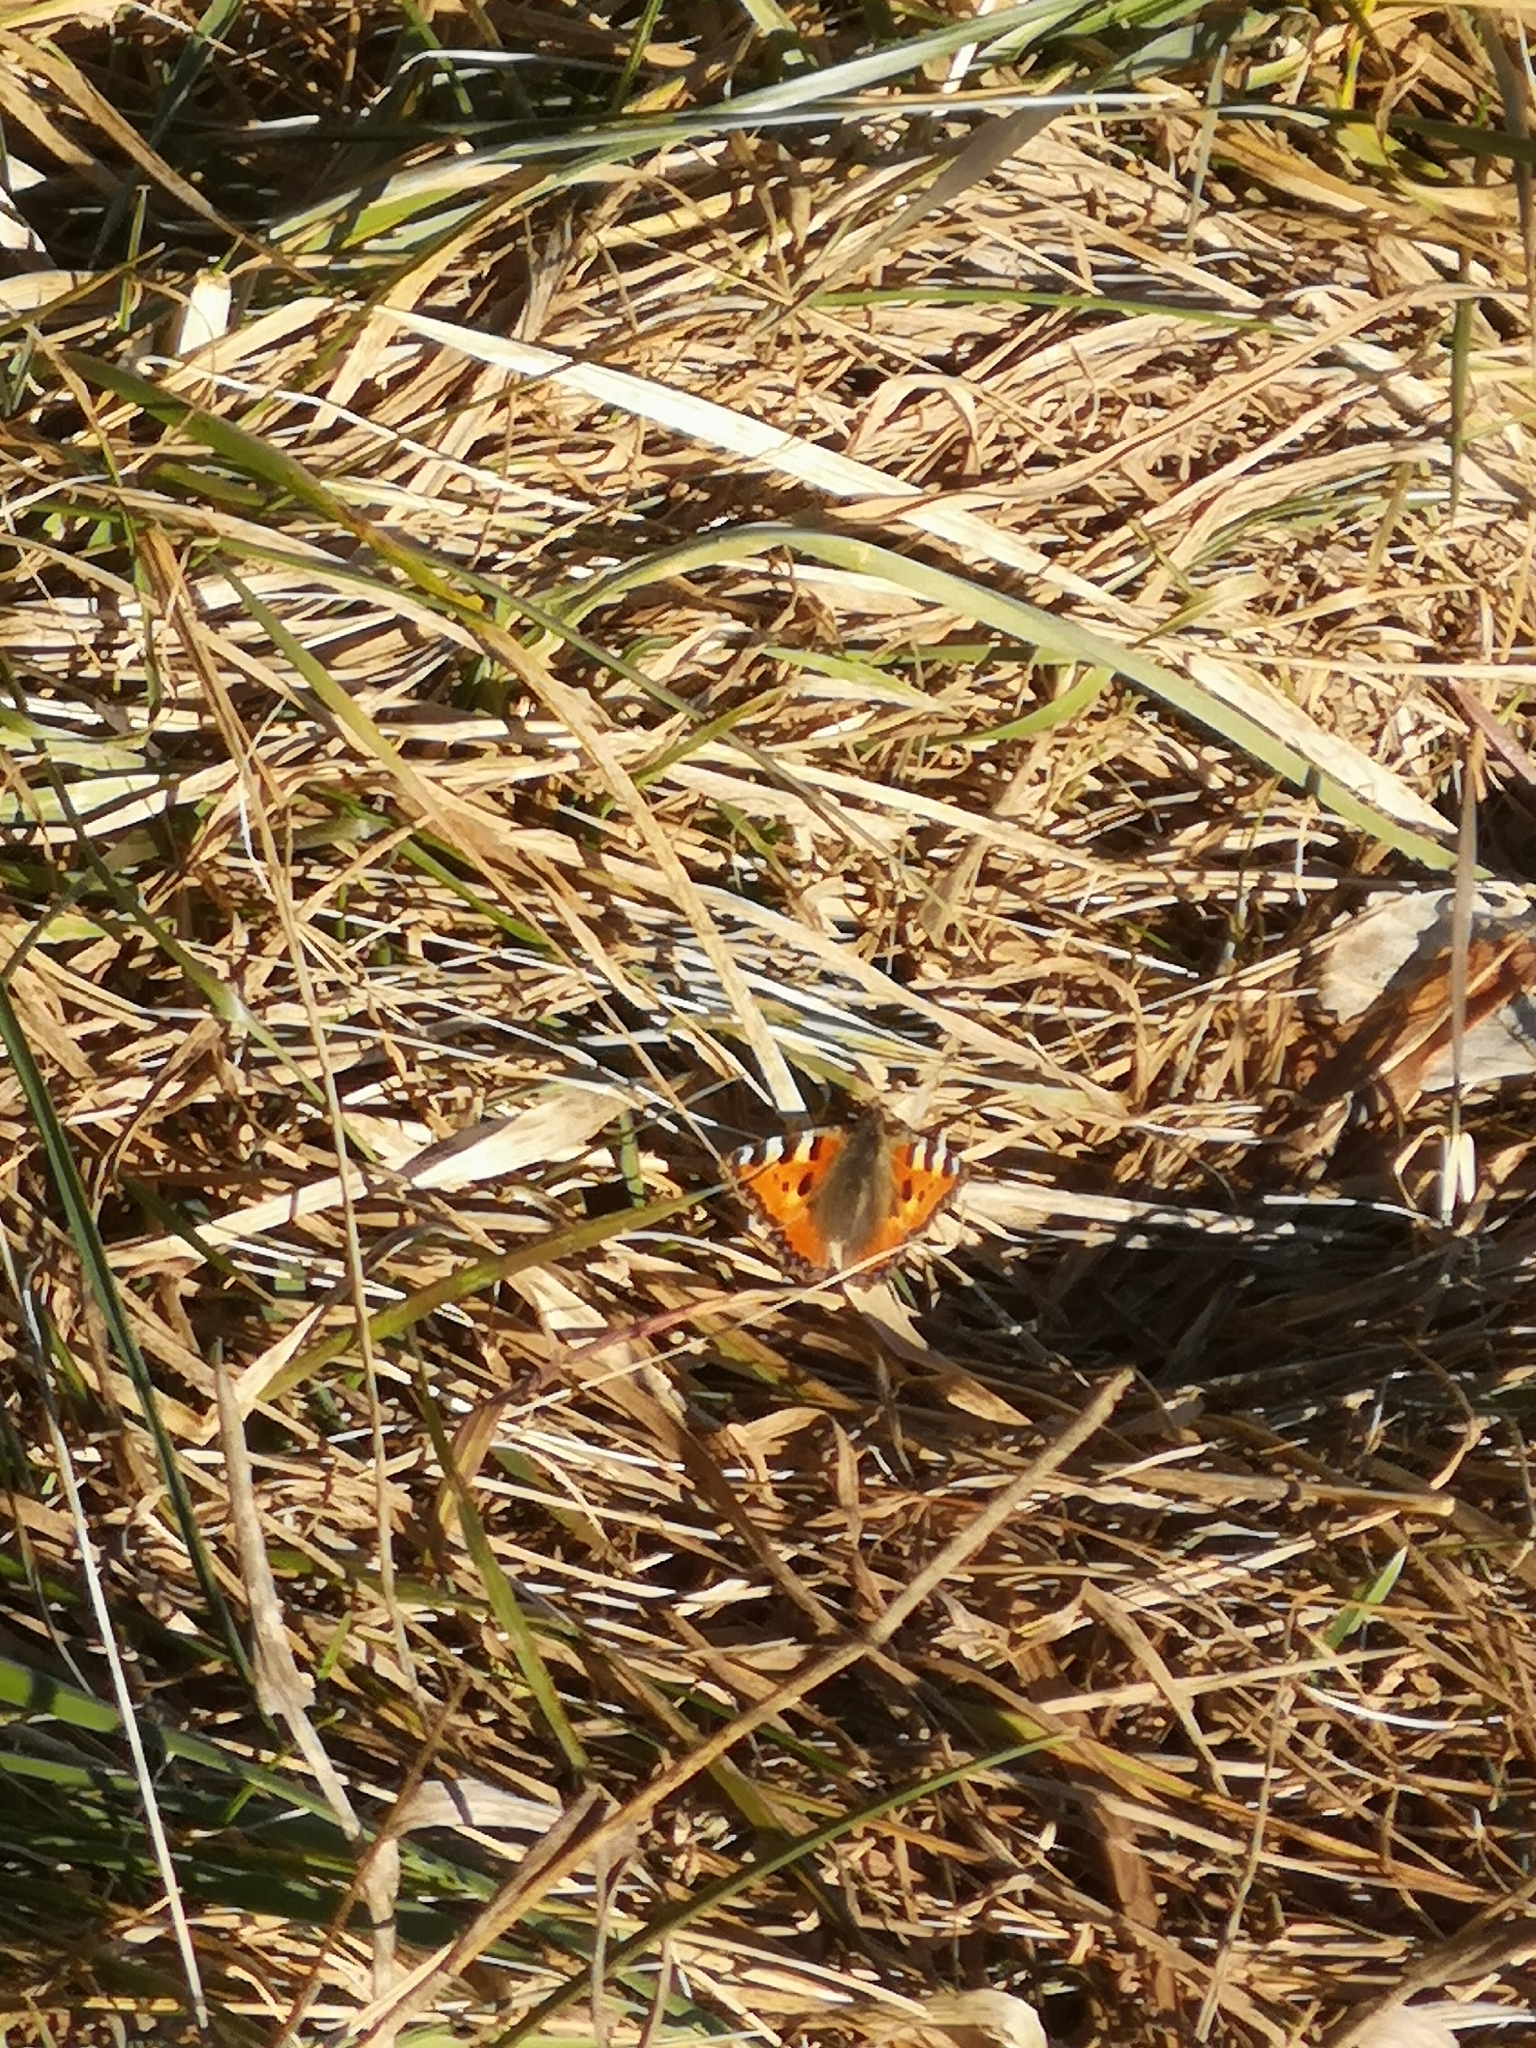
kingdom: Animalia
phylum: Arthropoda
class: Insecta
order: Lepidoptera
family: Nymphalidae
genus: Aglais
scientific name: Aglais urticae
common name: Small tortoiseshell
